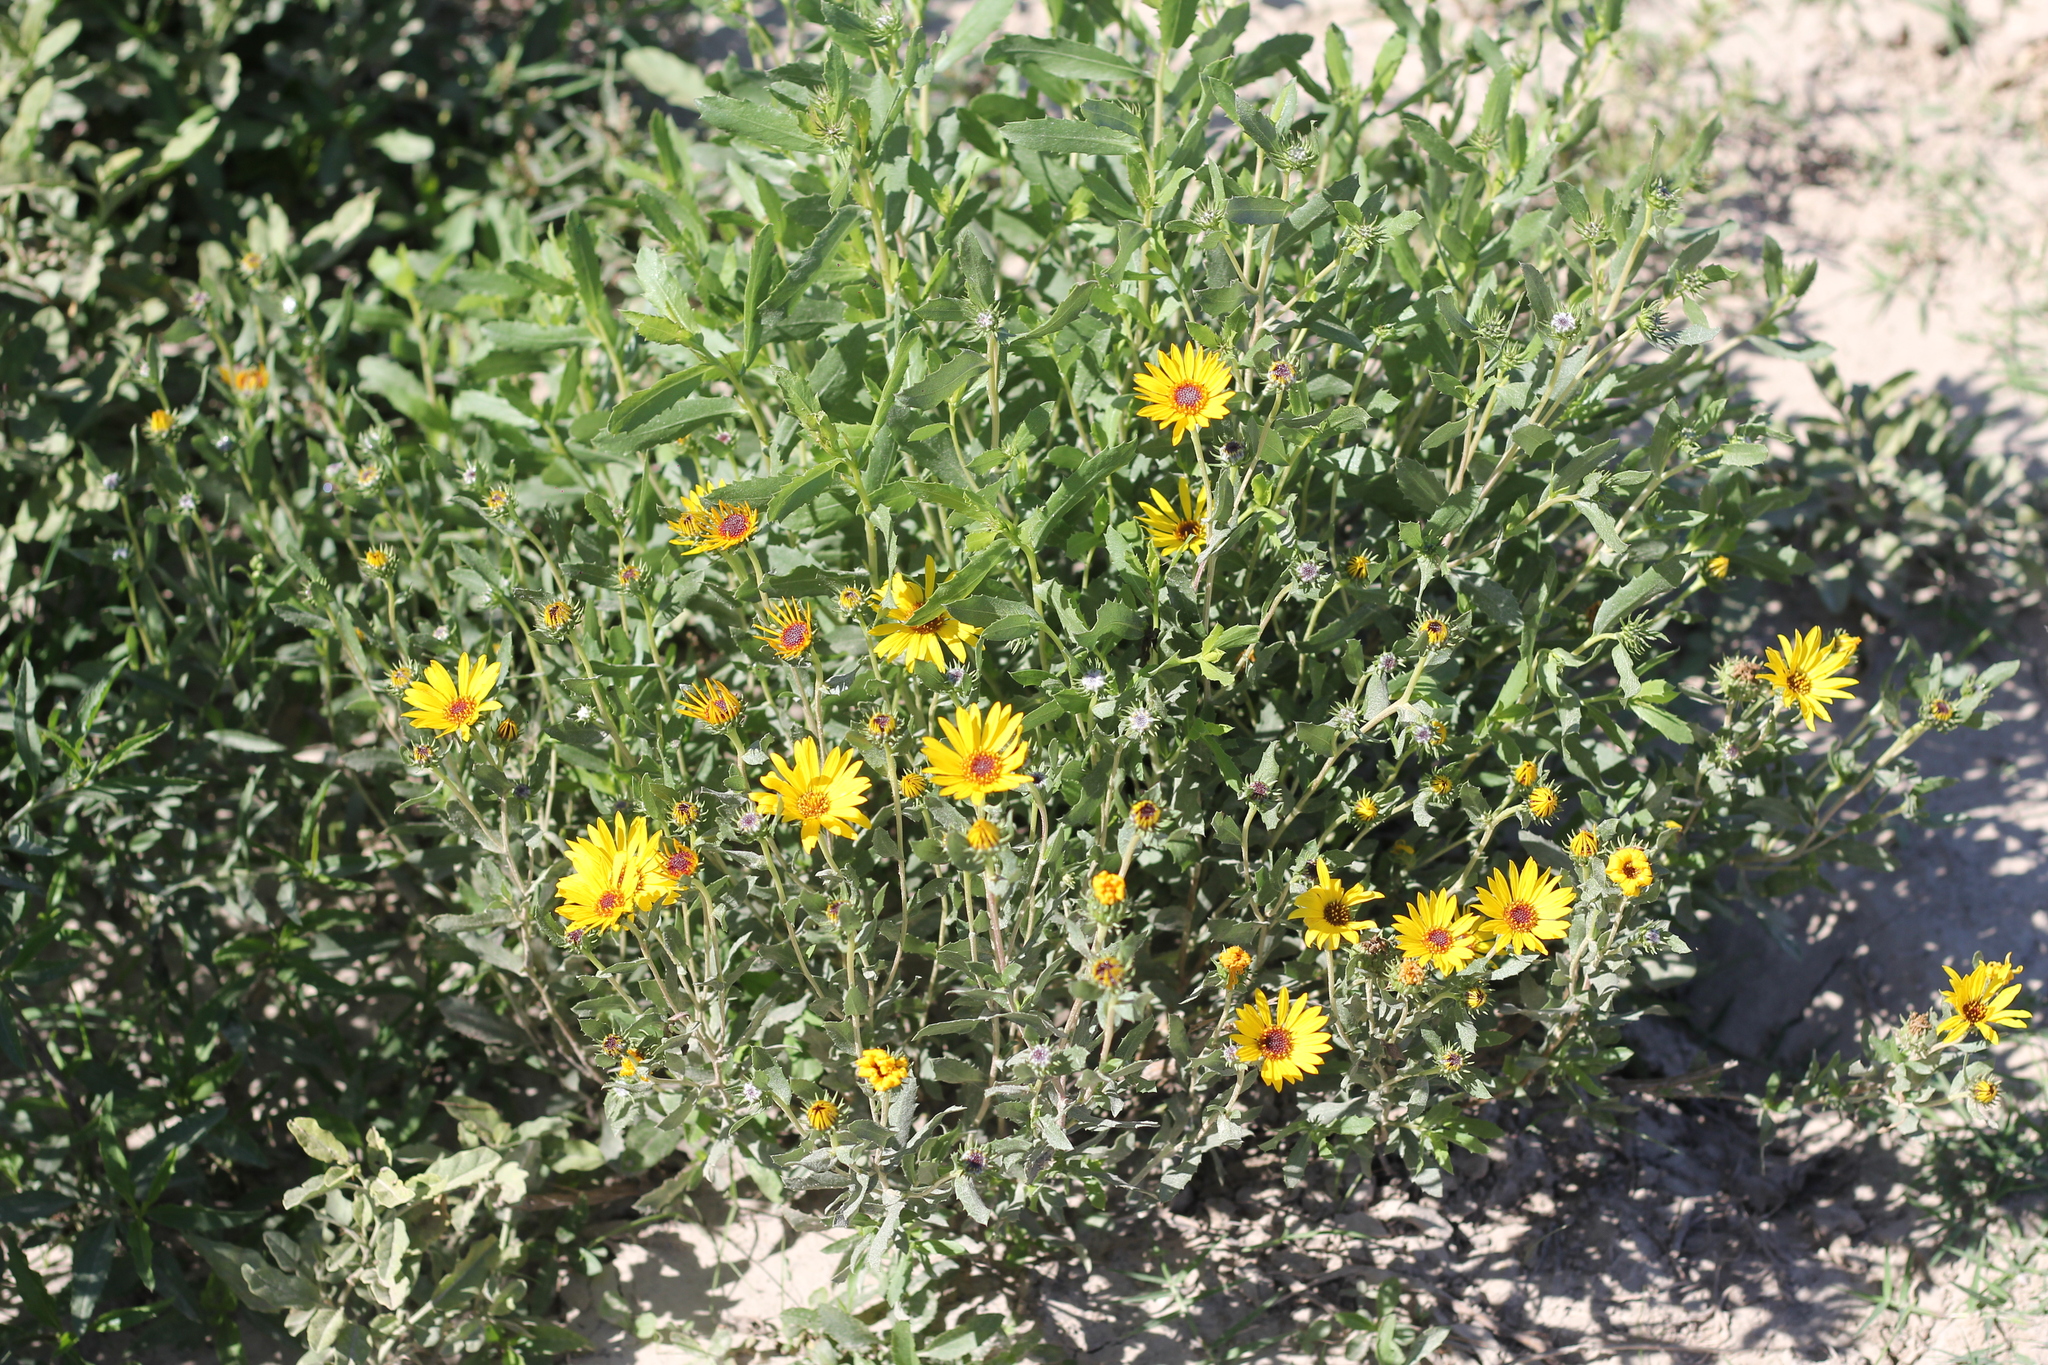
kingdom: Plantae
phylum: Tracheophyta
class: Magnoliopsida
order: Asterales
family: Asteraceae
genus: Grindelia
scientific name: Grindelia pulchella
